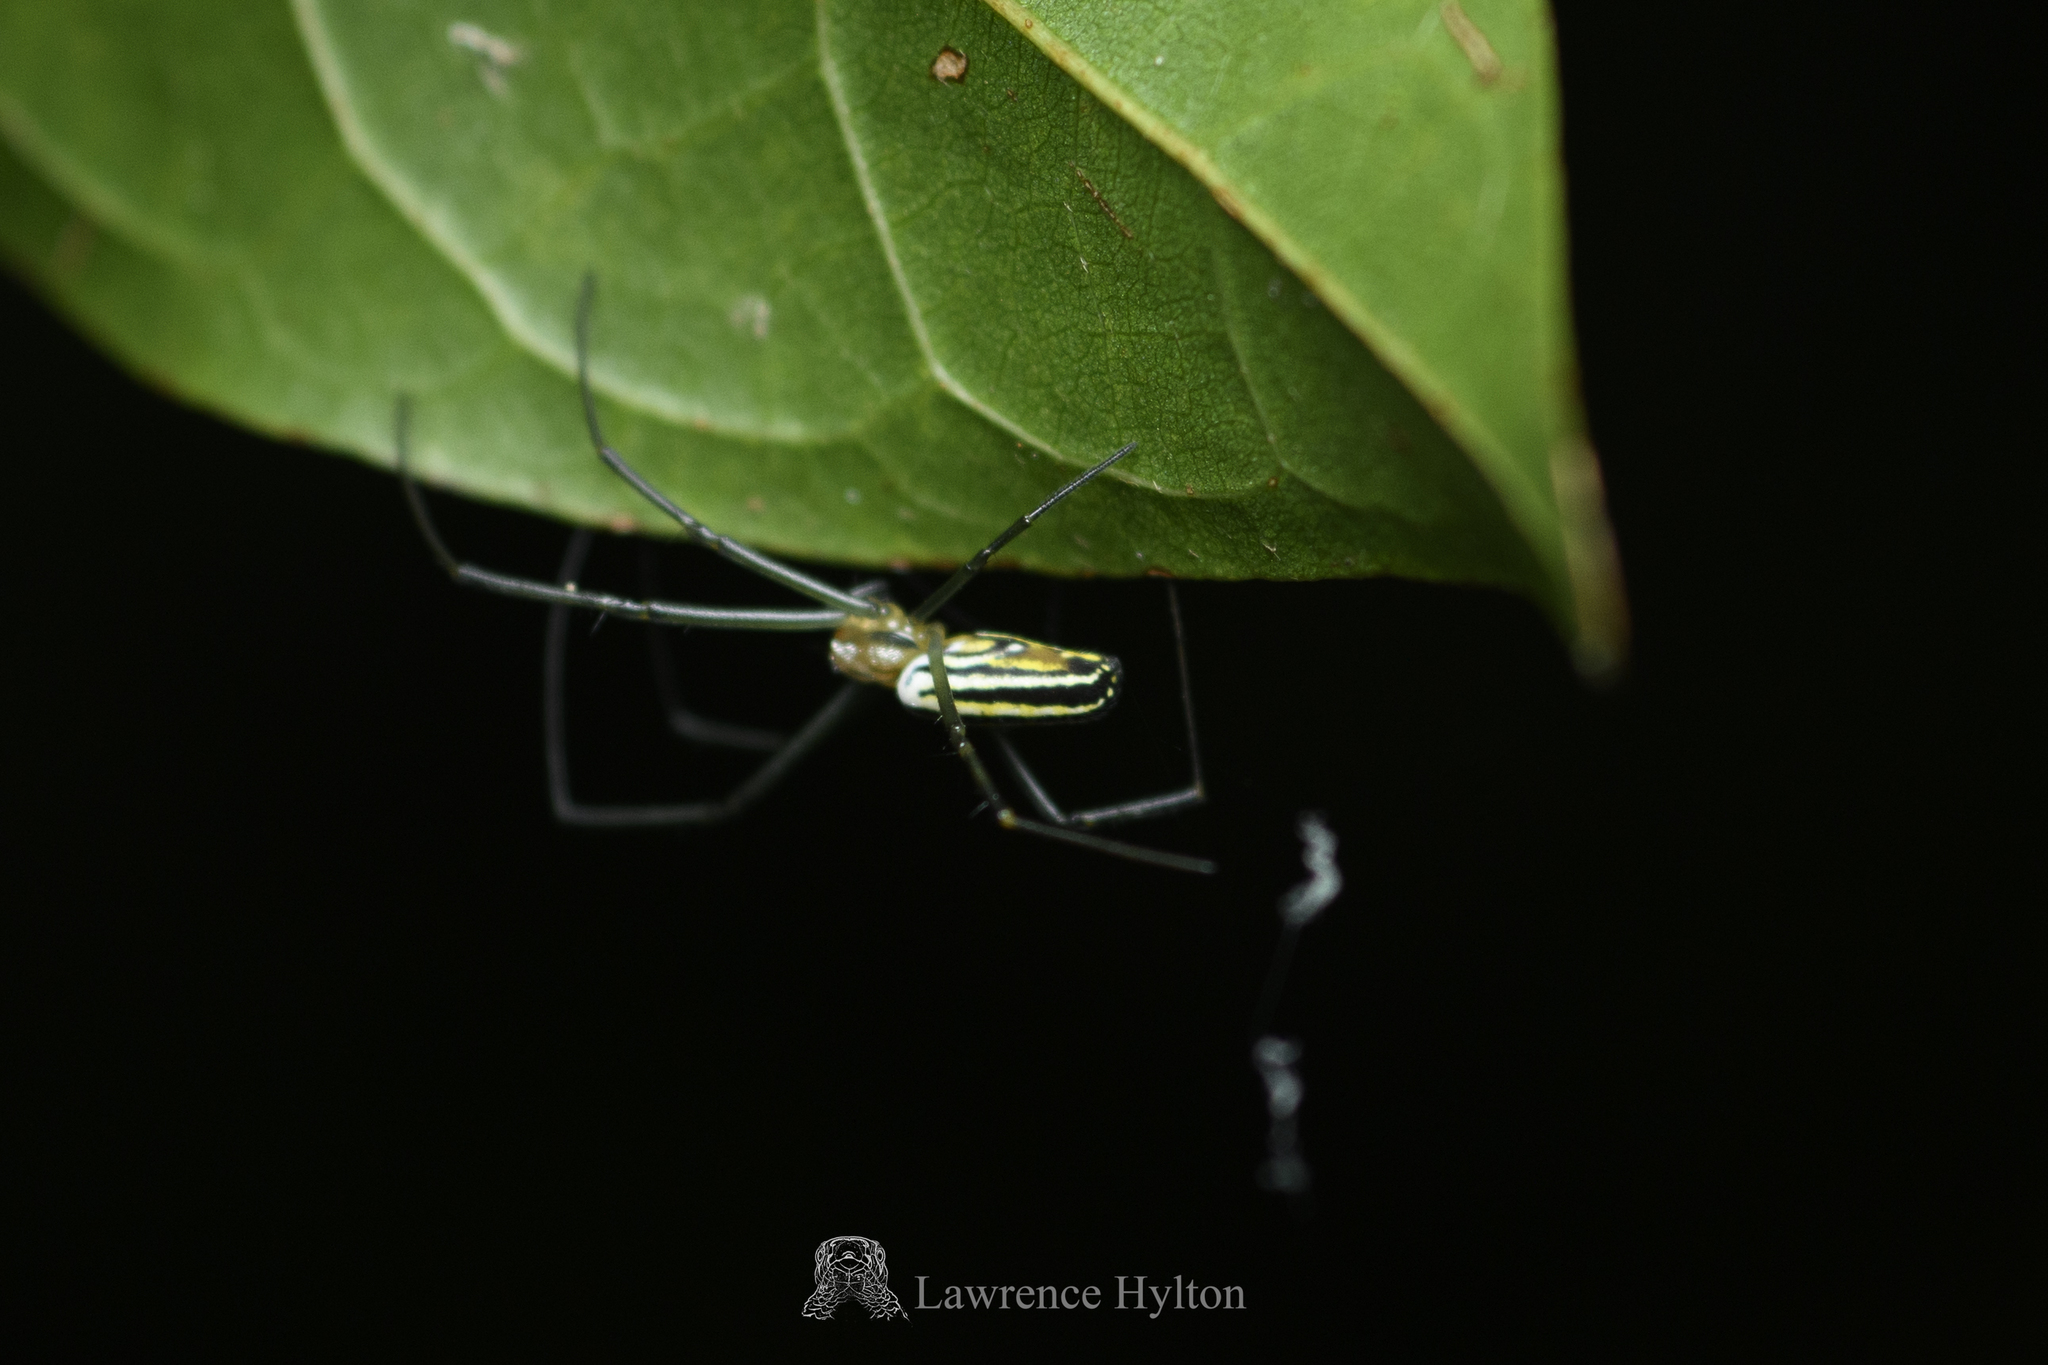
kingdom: Animalia
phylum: Arthropoda
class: Arachnida
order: Araneae
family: Araneidae
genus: Nephila
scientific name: Nephila pilipes
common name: Giant golden orb weaver
